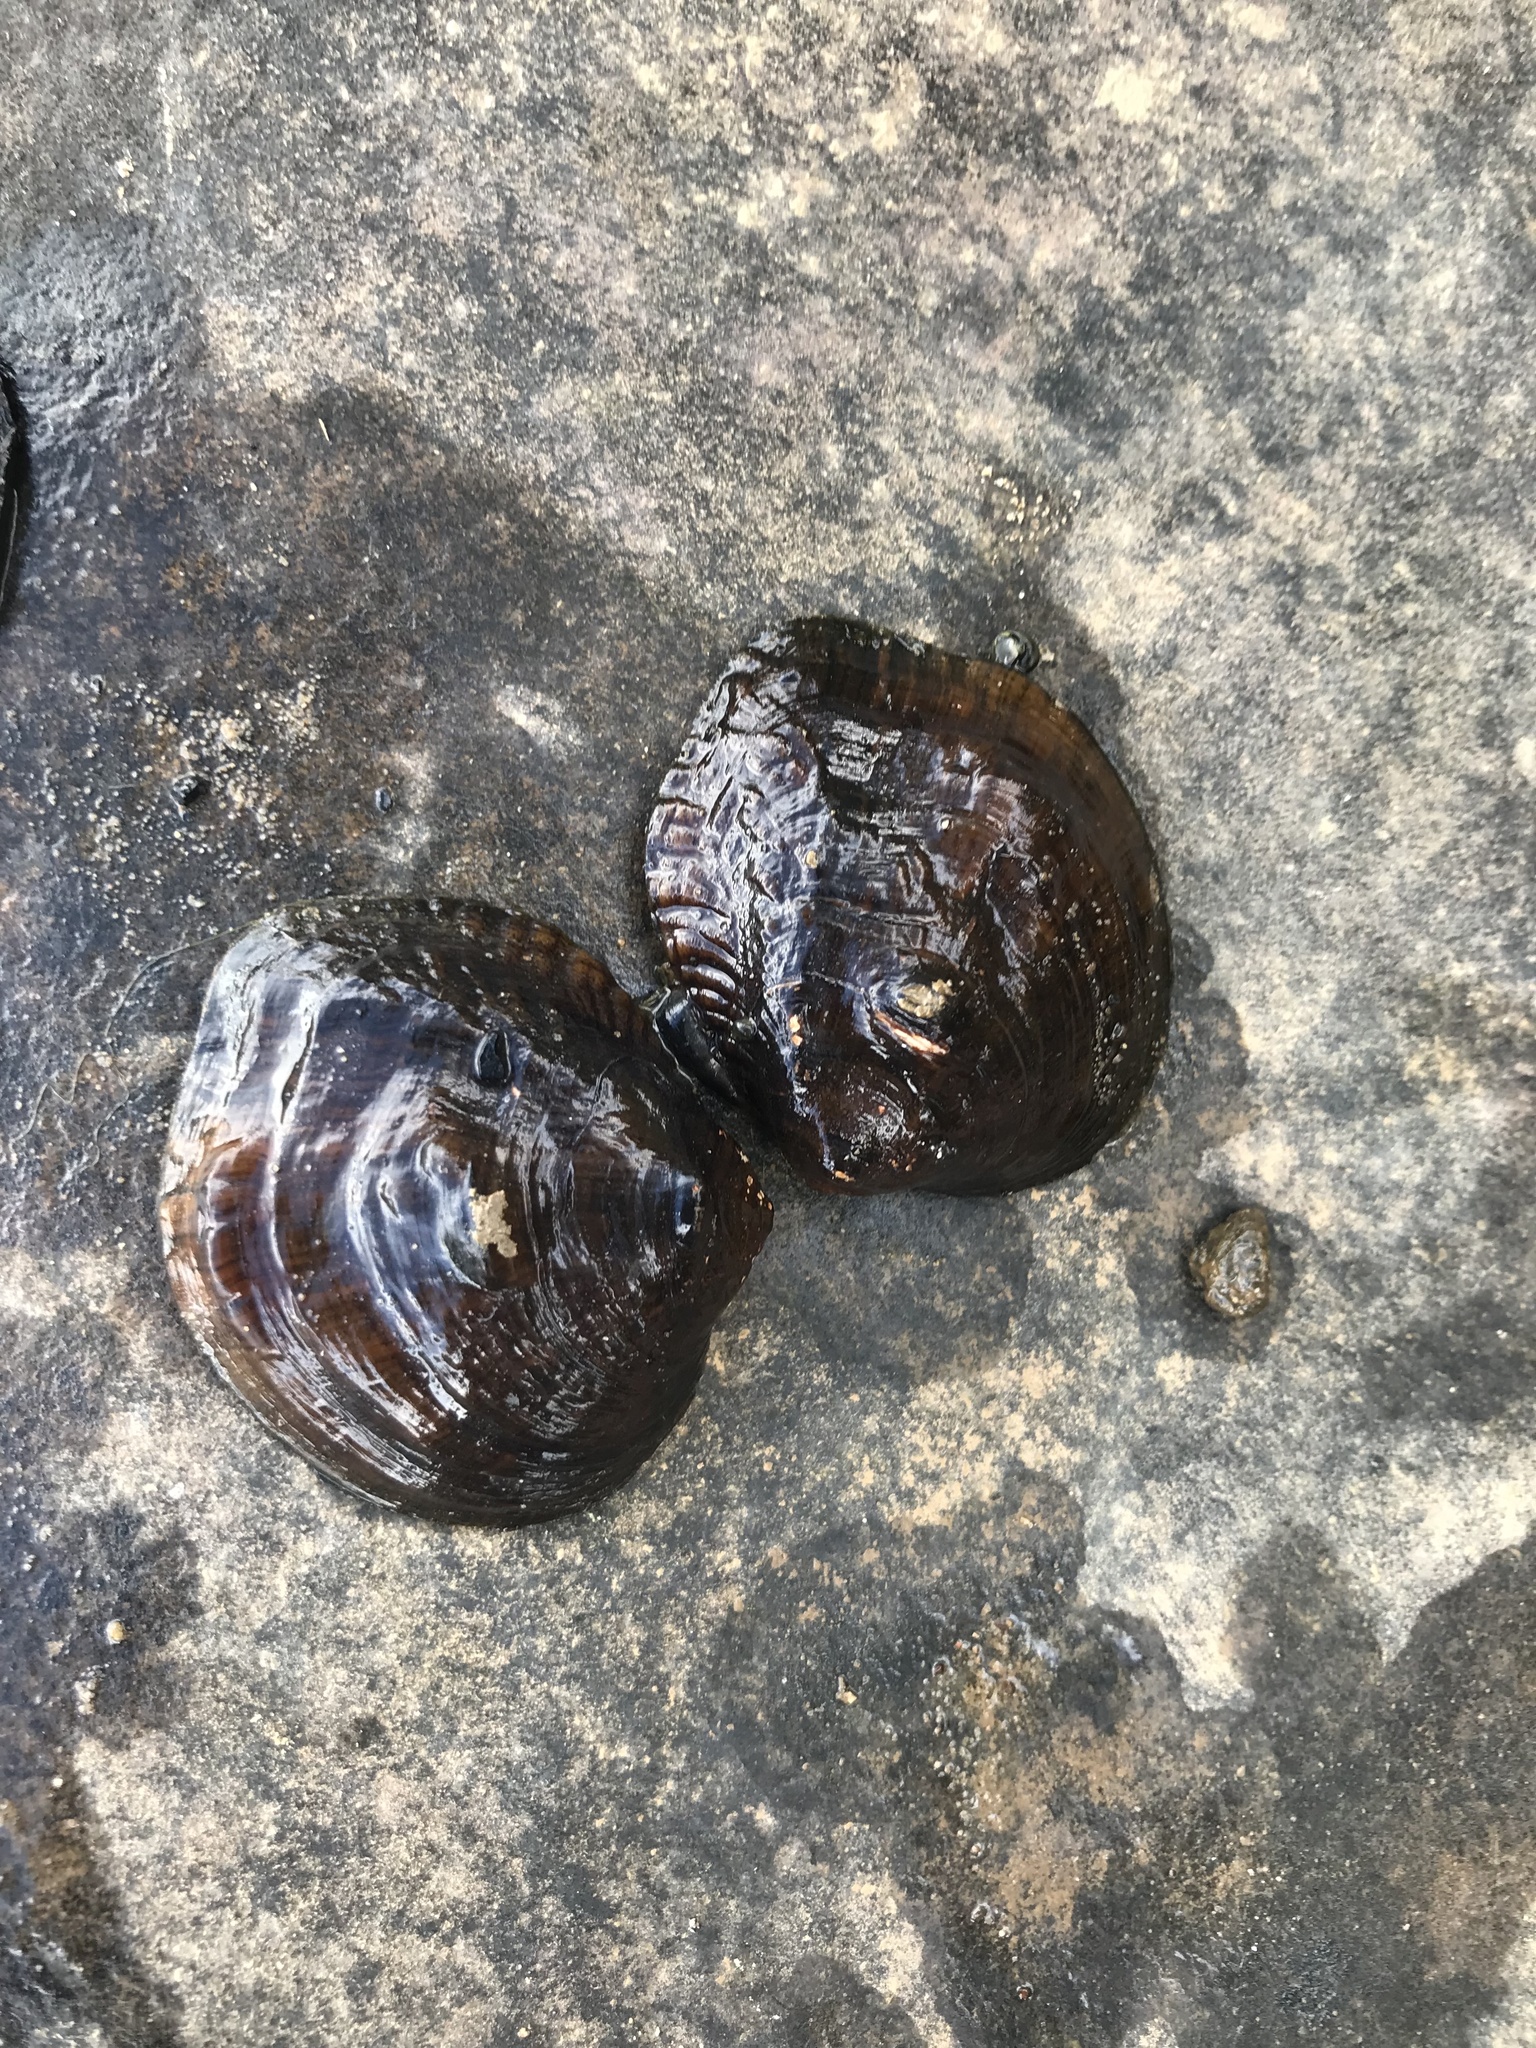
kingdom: Animalia
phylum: Mollusca
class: Bivalvia
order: Unionida
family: Unionidae
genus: Obliquaria
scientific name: Obliquaria reflexa
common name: Threehorn wartyback
